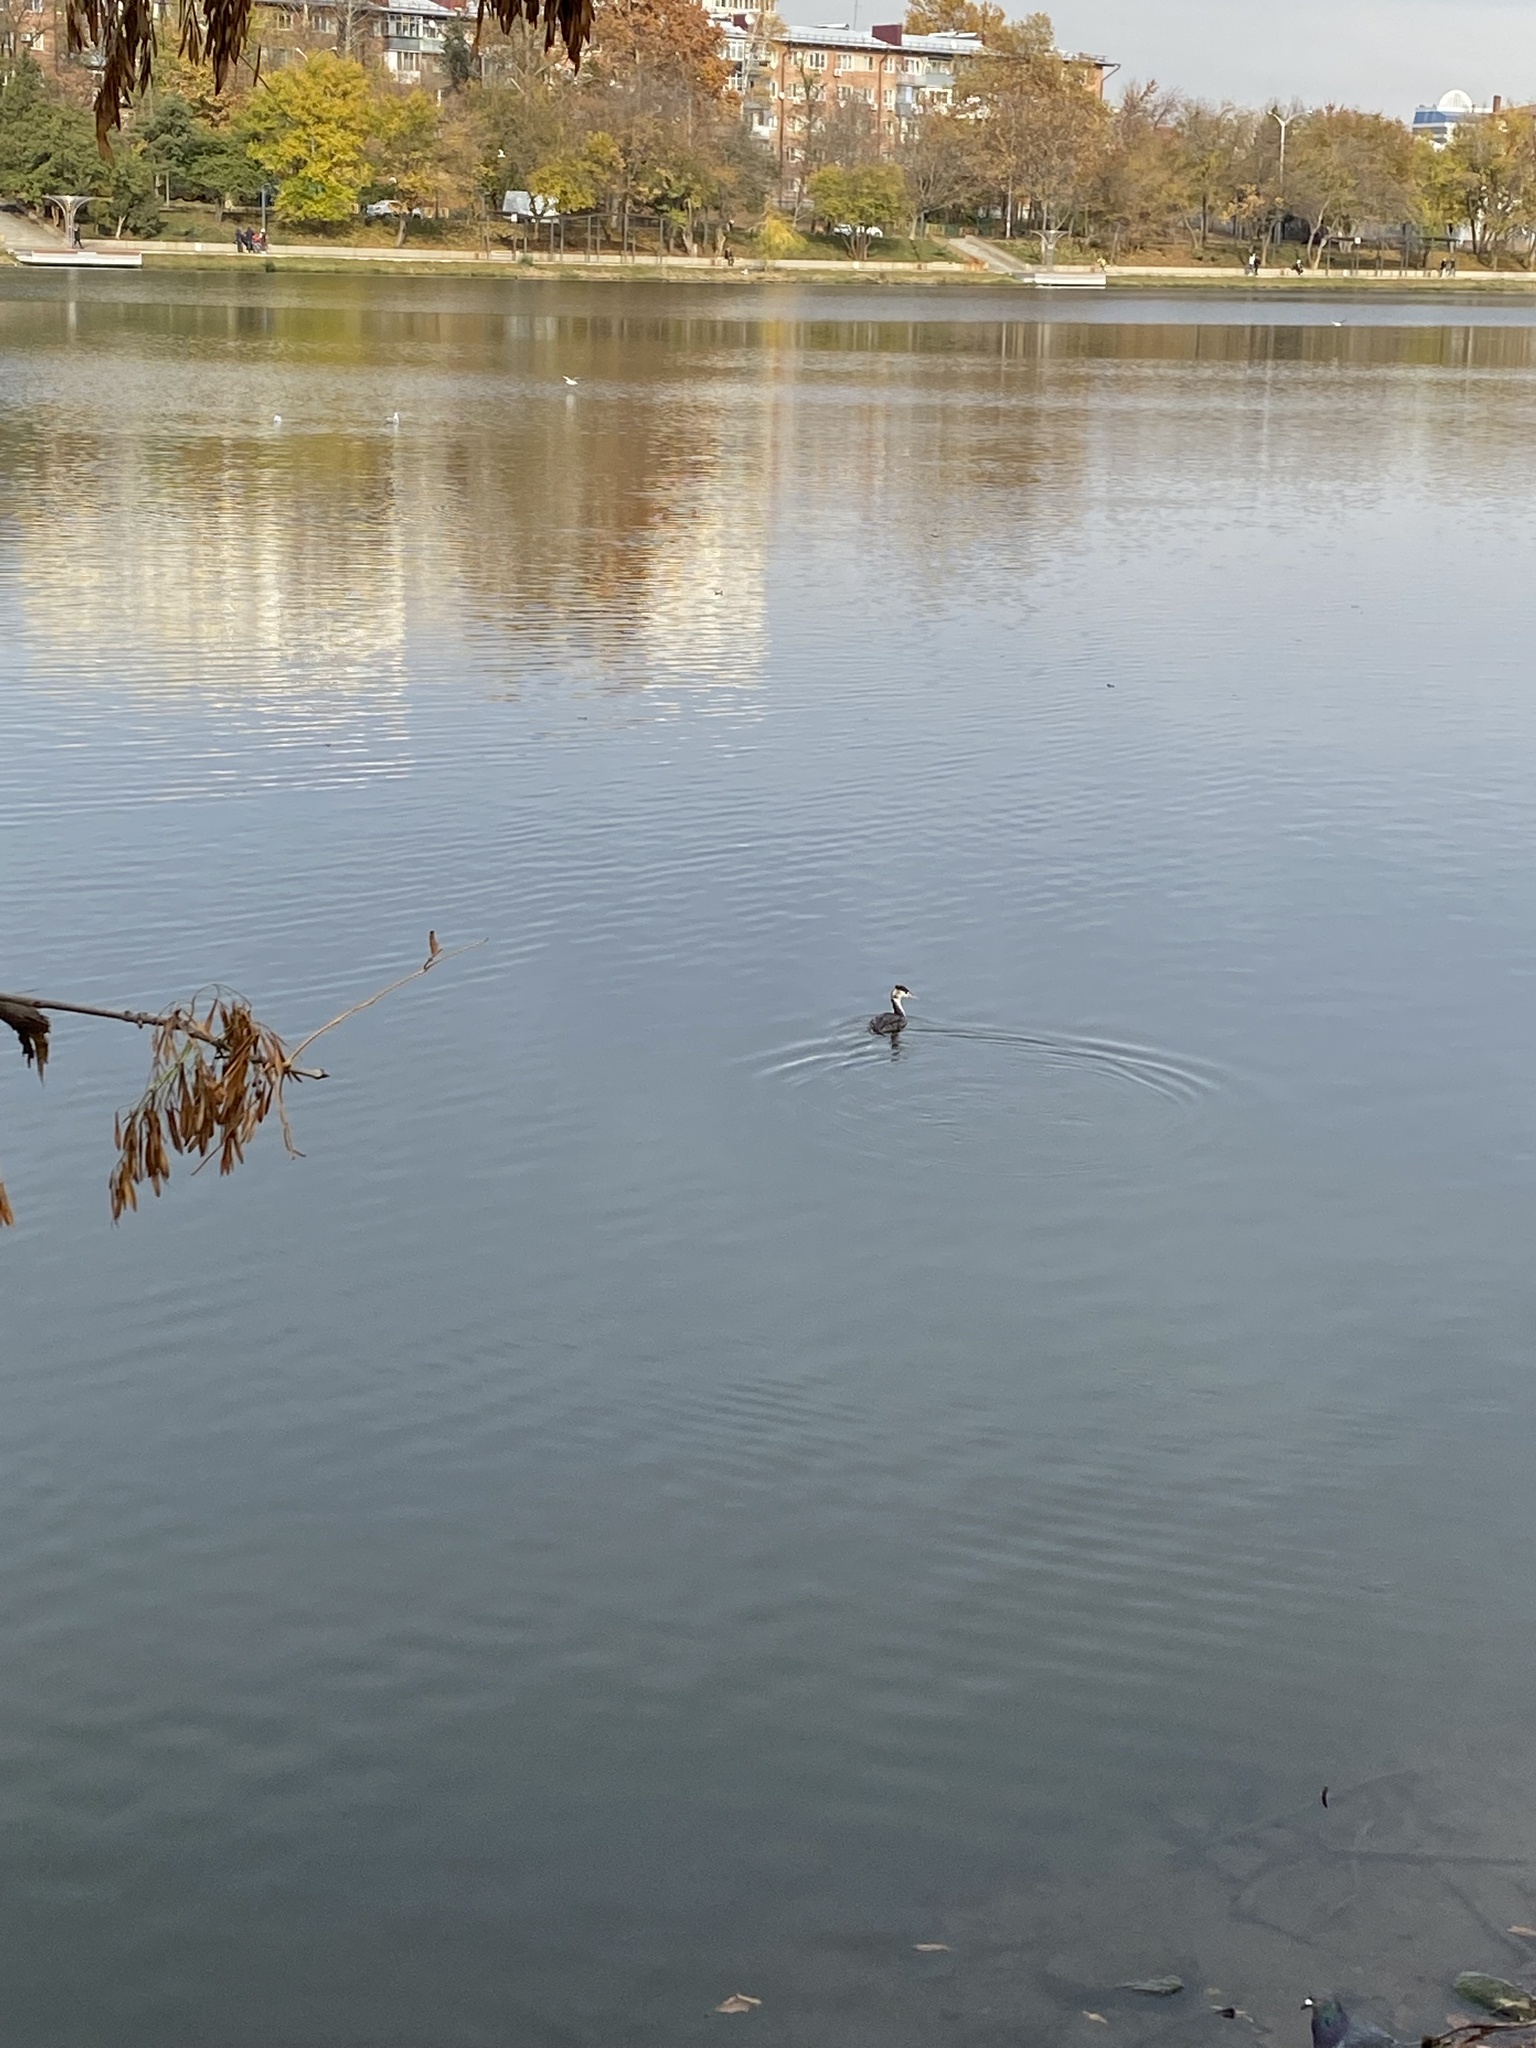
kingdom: Animalia
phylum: Chordata
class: Aves
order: Podicipediformes
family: Podicipedidae
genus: Podiceps
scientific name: Podiceps cristatus
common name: Great crested grebe
